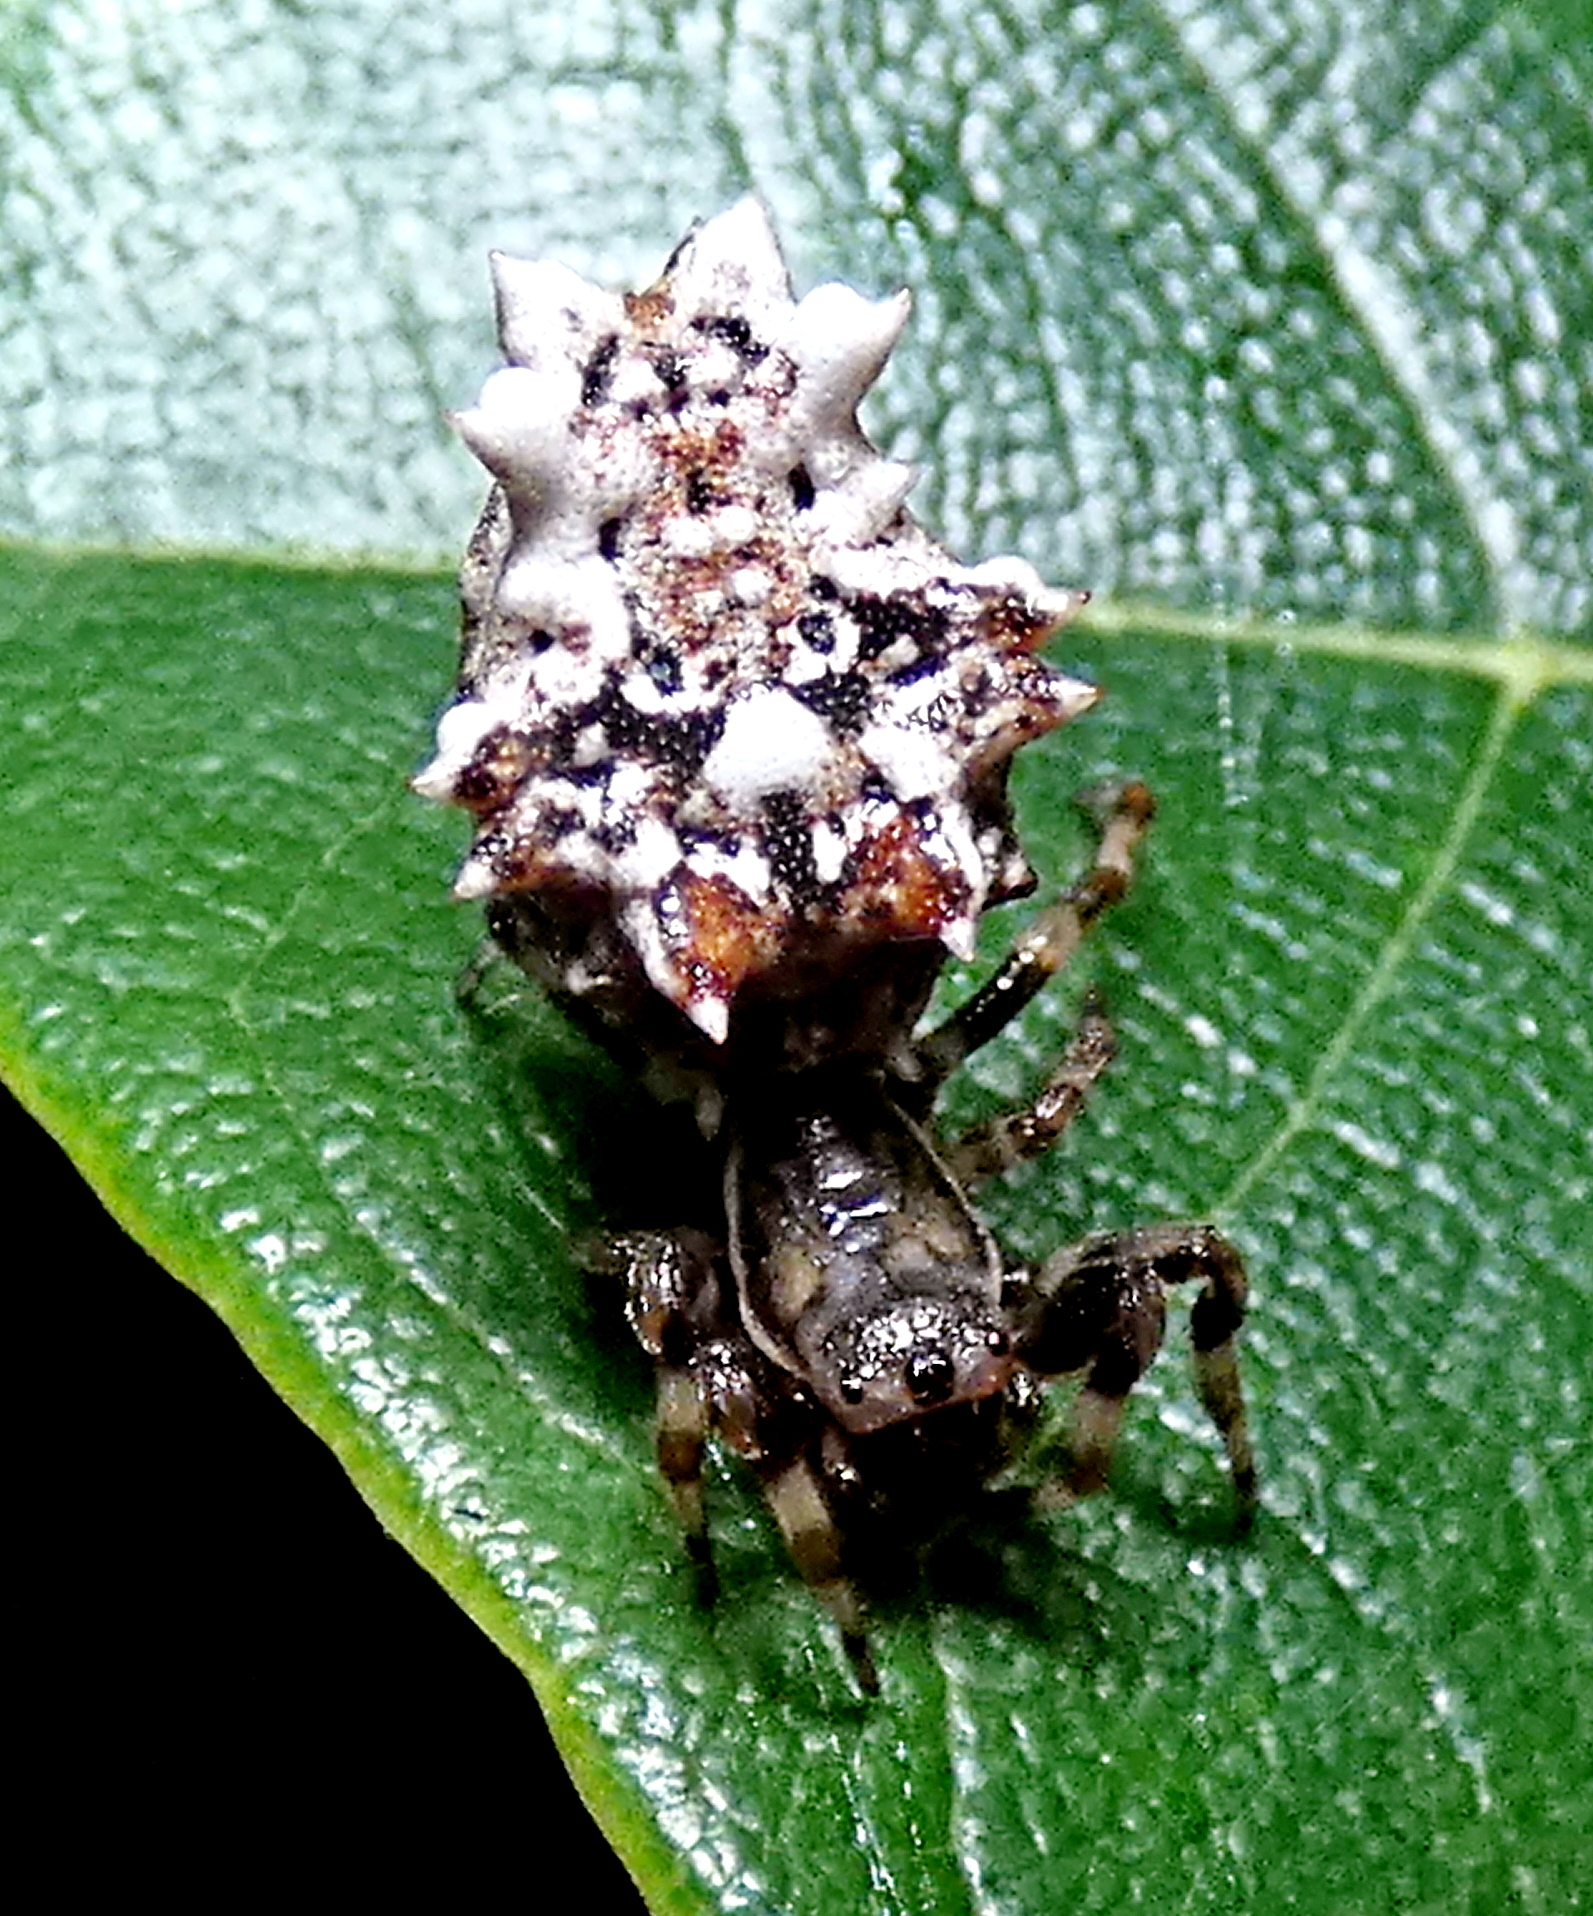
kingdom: Animalia
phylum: Arthropoda
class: Arachnida
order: Araneae
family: Araneidae
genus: Micrathena
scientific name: Micrathena horrida
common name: Orb weavers
